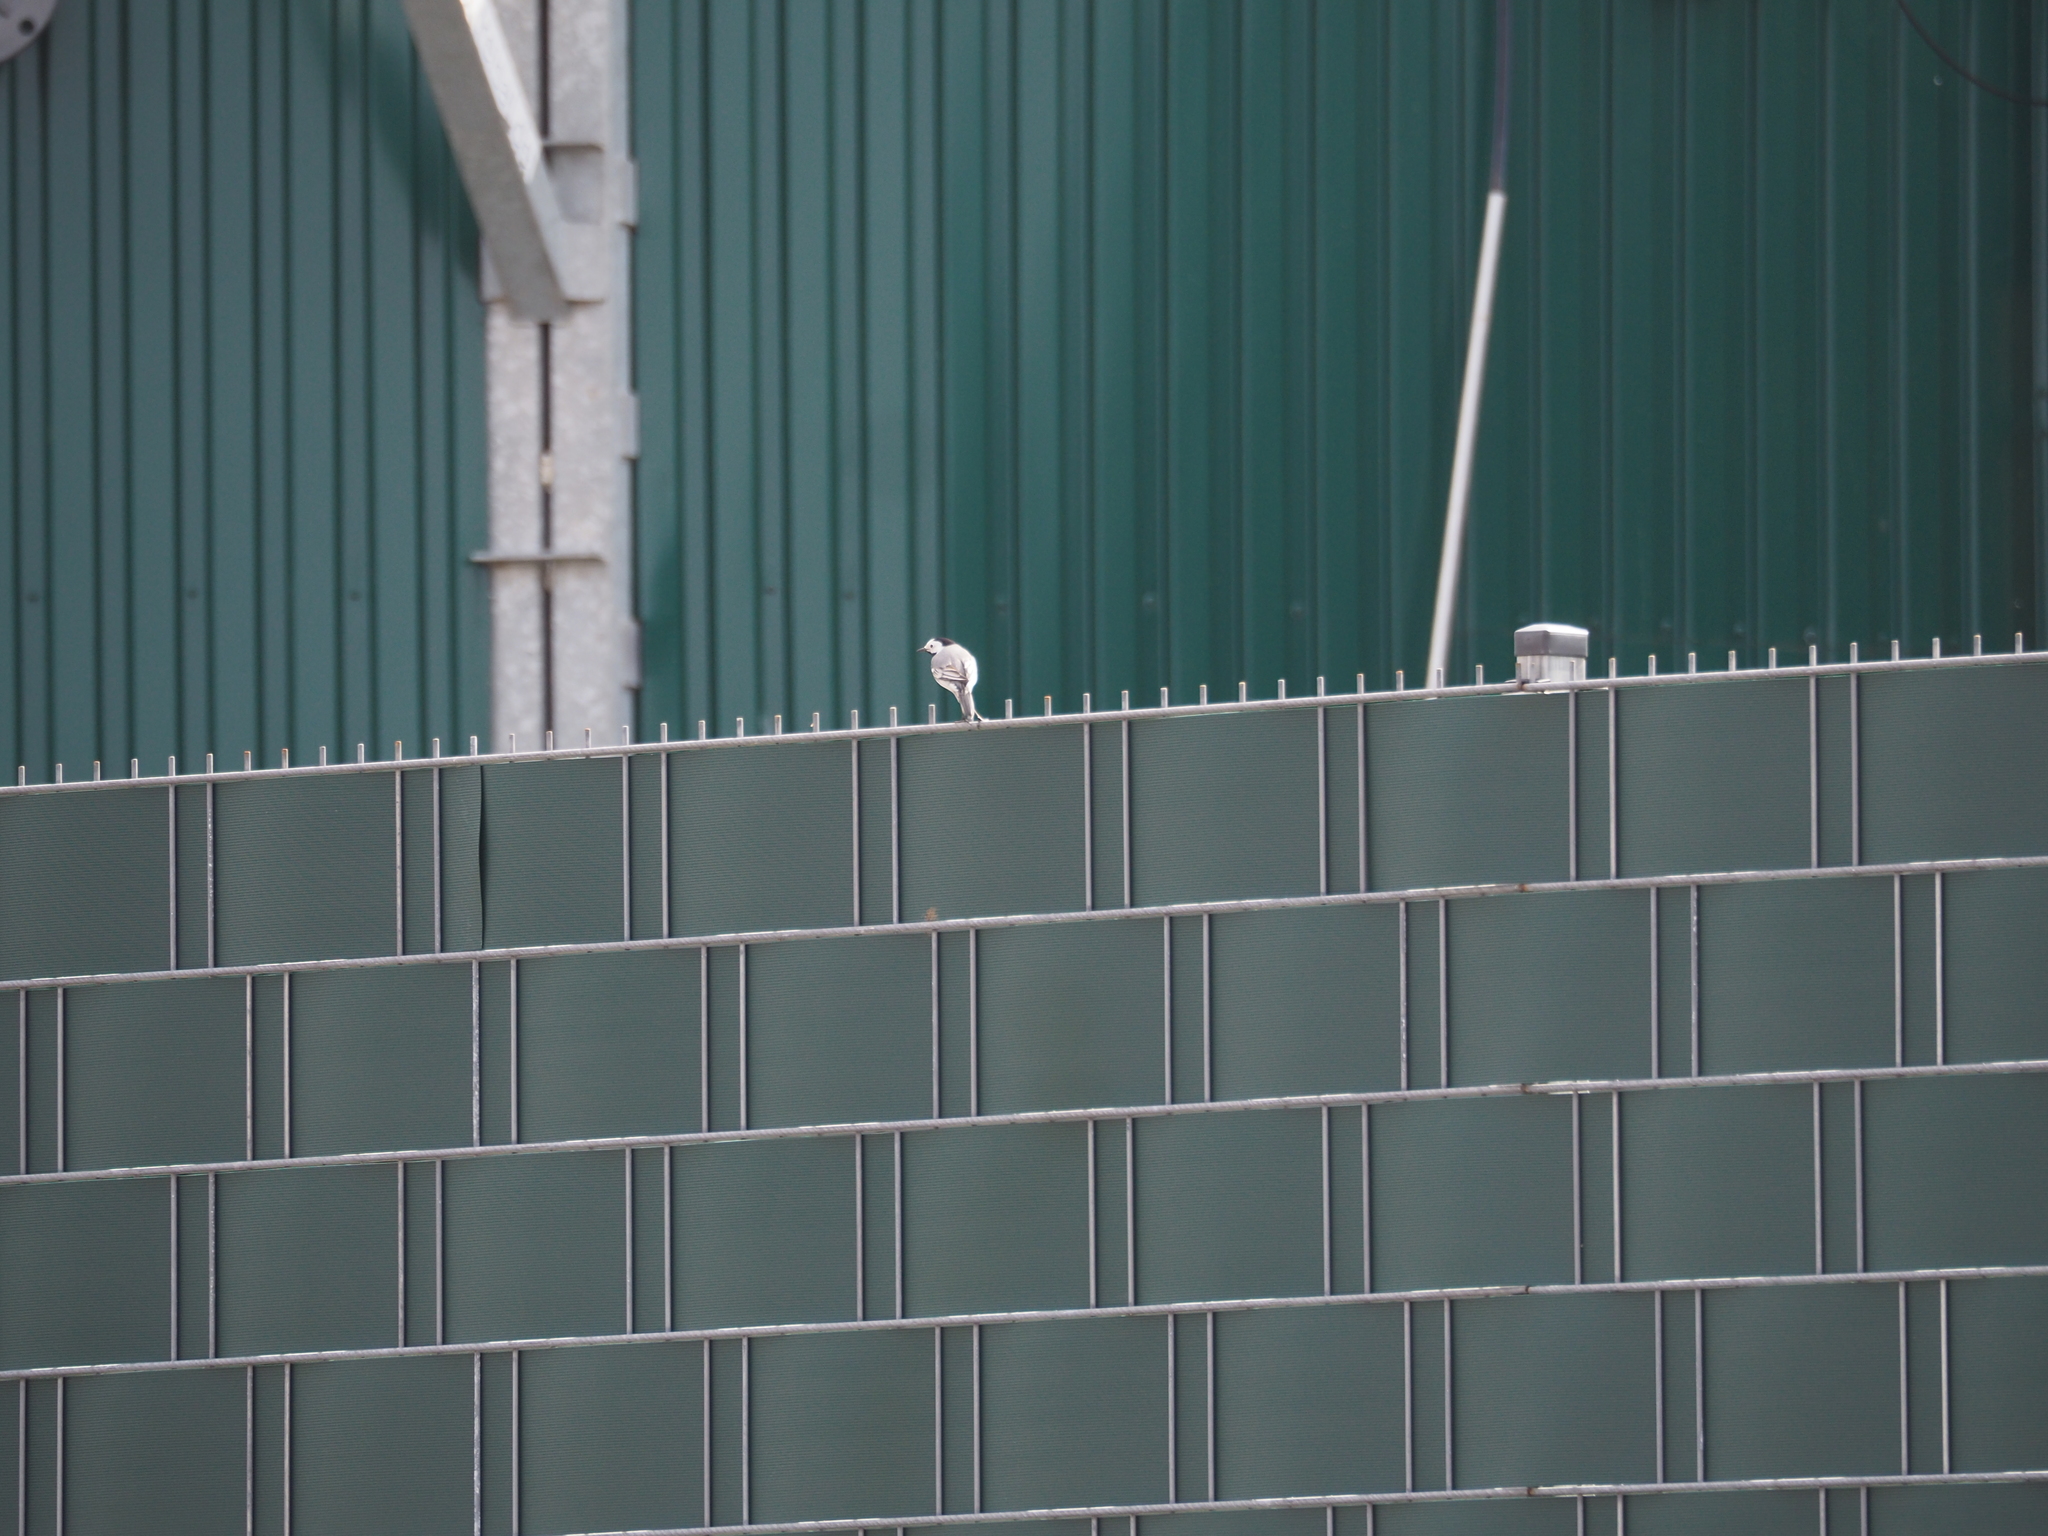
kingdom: Animalia
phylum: Chordata
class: Aves
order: Passeriformes
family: Motacillidae
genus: Motacilla
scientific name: Motacilla alba
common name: White wagtail
